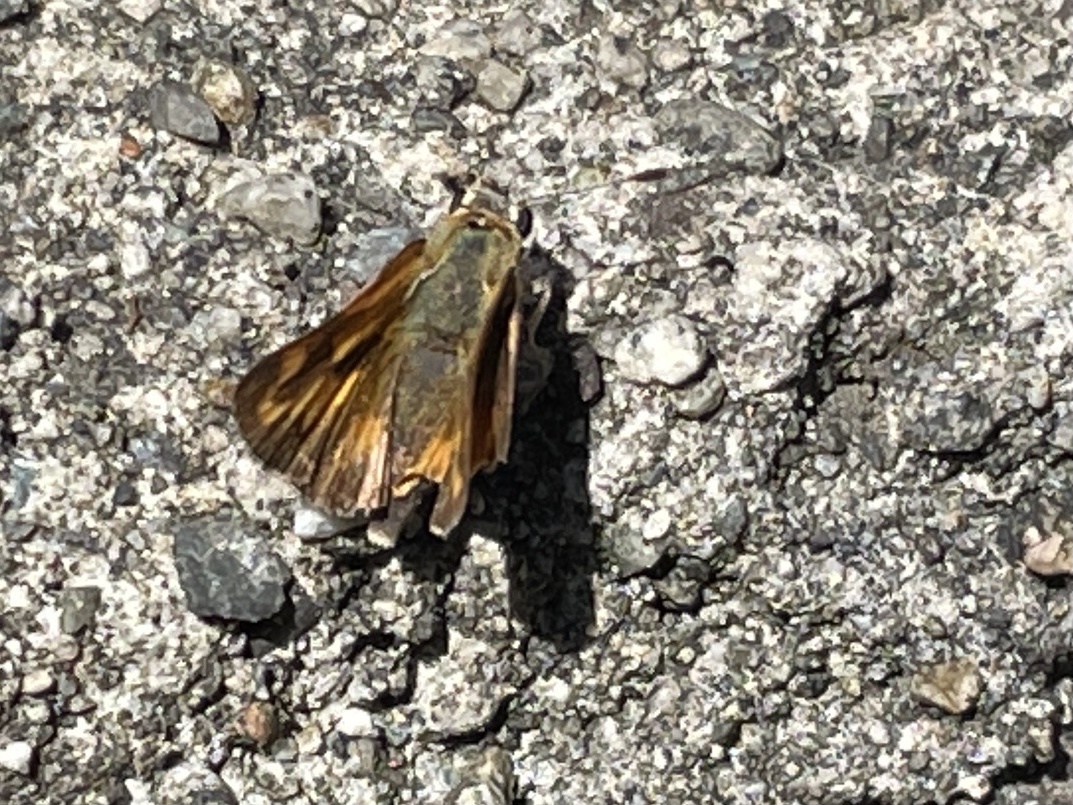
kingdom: Animalia
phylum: Arthropoda
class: Insecta
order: Lepidoptera
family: Hesperiidae
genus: Ochlodes
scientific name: Ochlodes sylvanoides
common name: Woodland skipper
